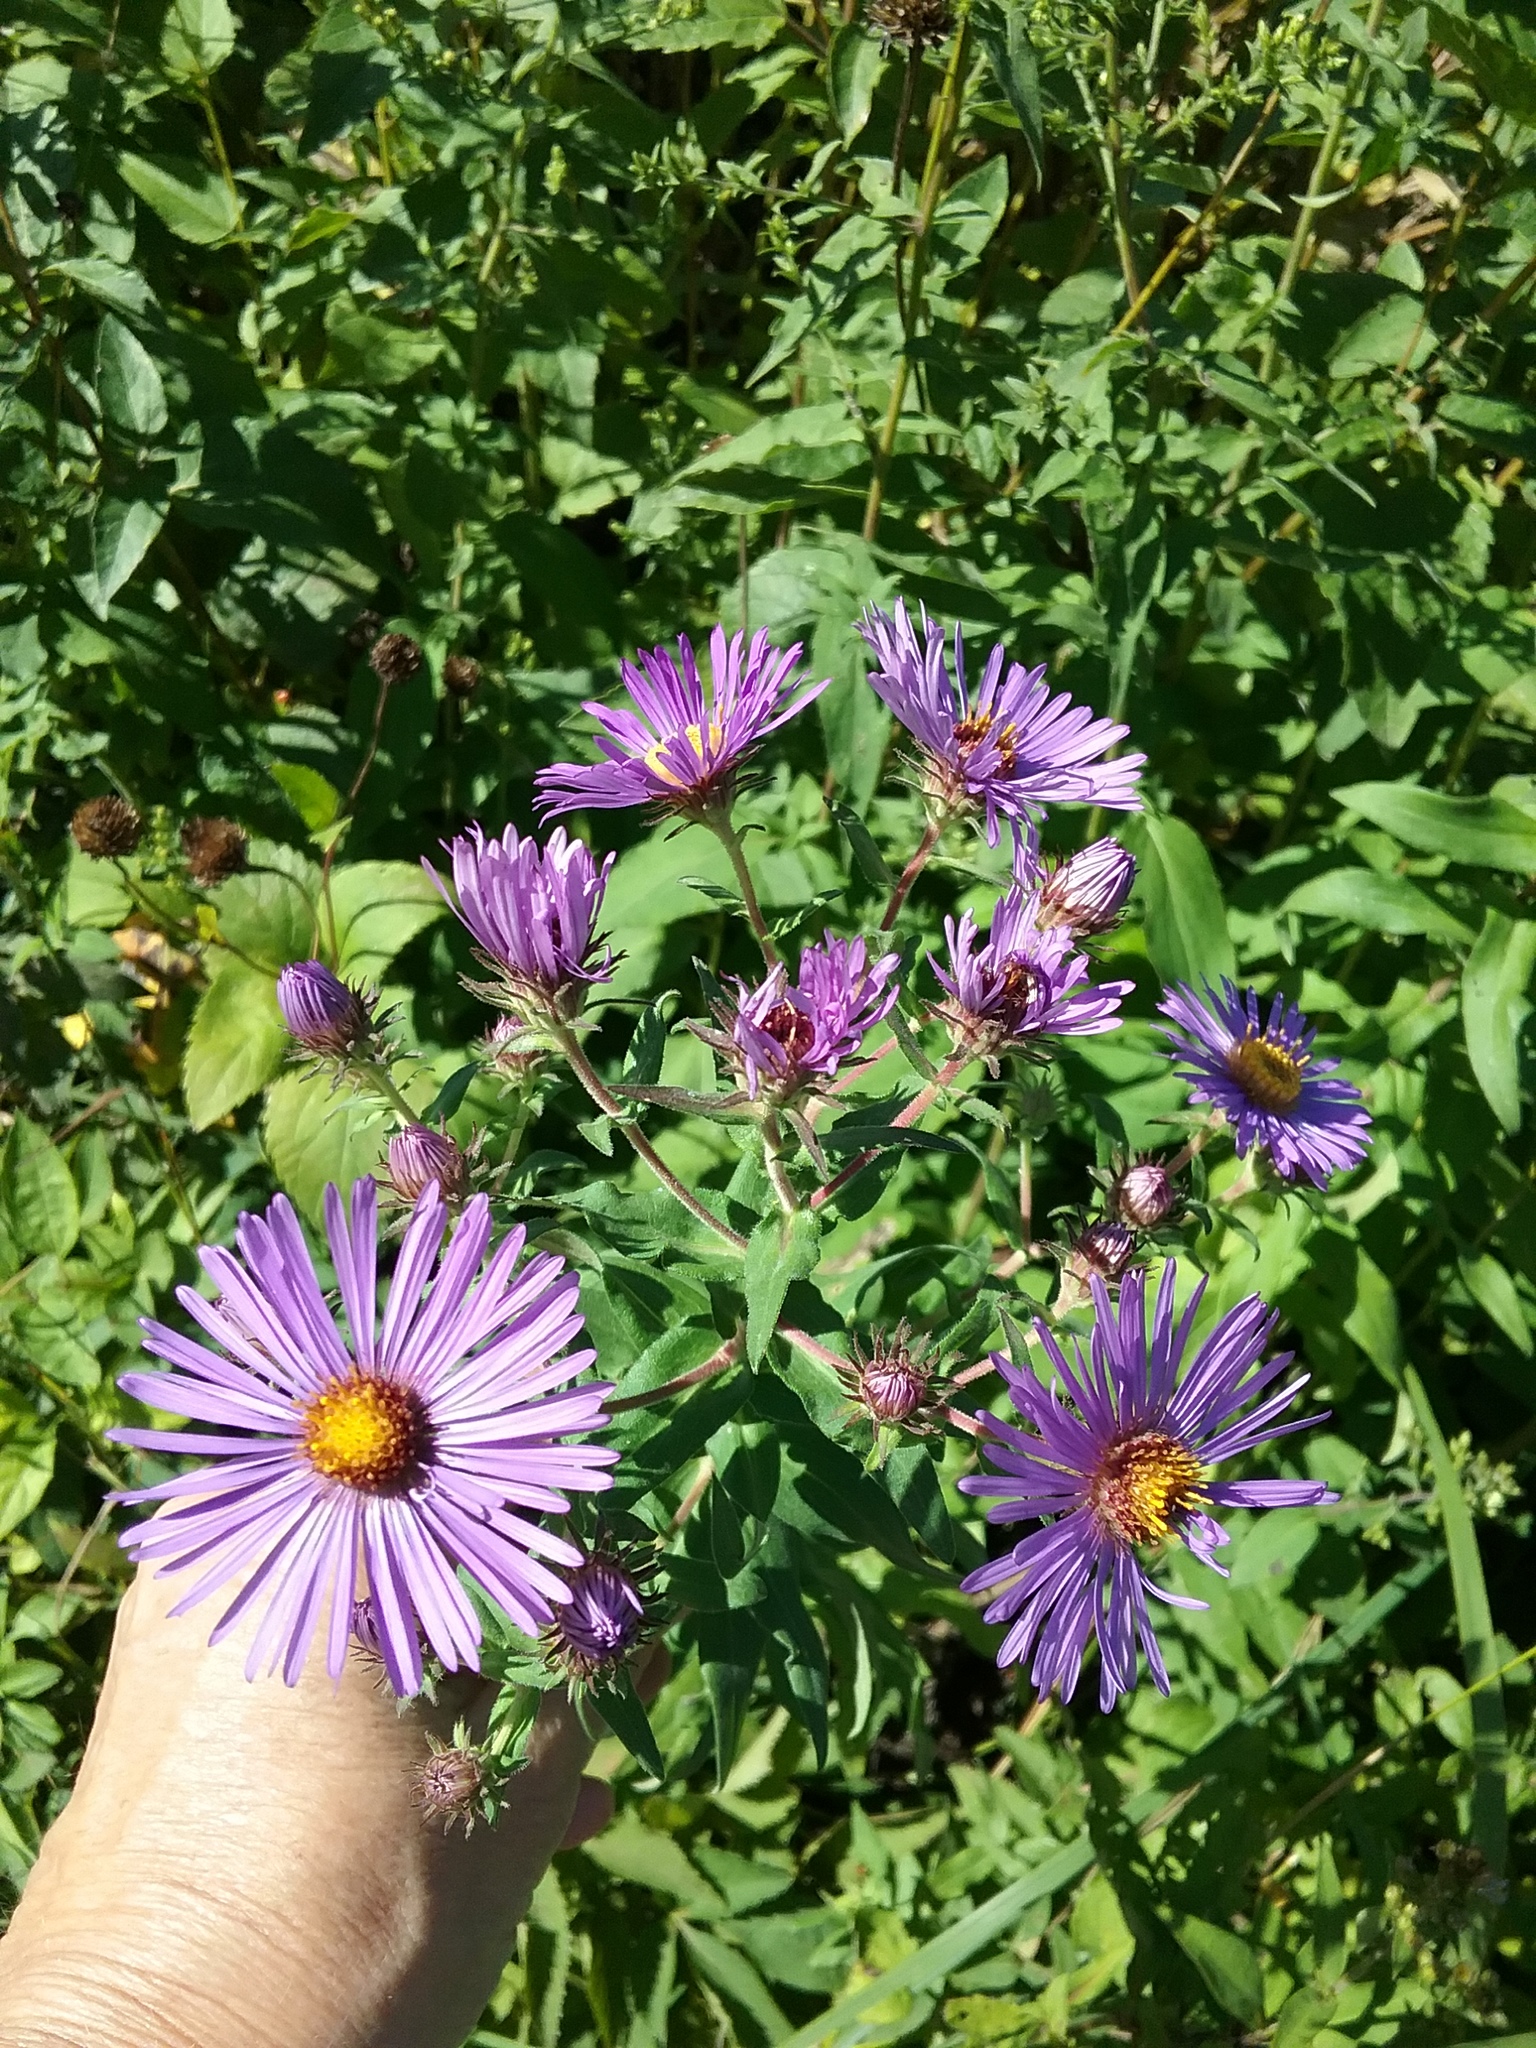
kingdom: Plantae
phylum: Tracheophyta
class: Magnoliopsida
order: Asterales
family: Asteraceae
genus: Symphyotrichum
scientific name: Symphyotrichum novae-angliae
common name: Michaelmas daisy
